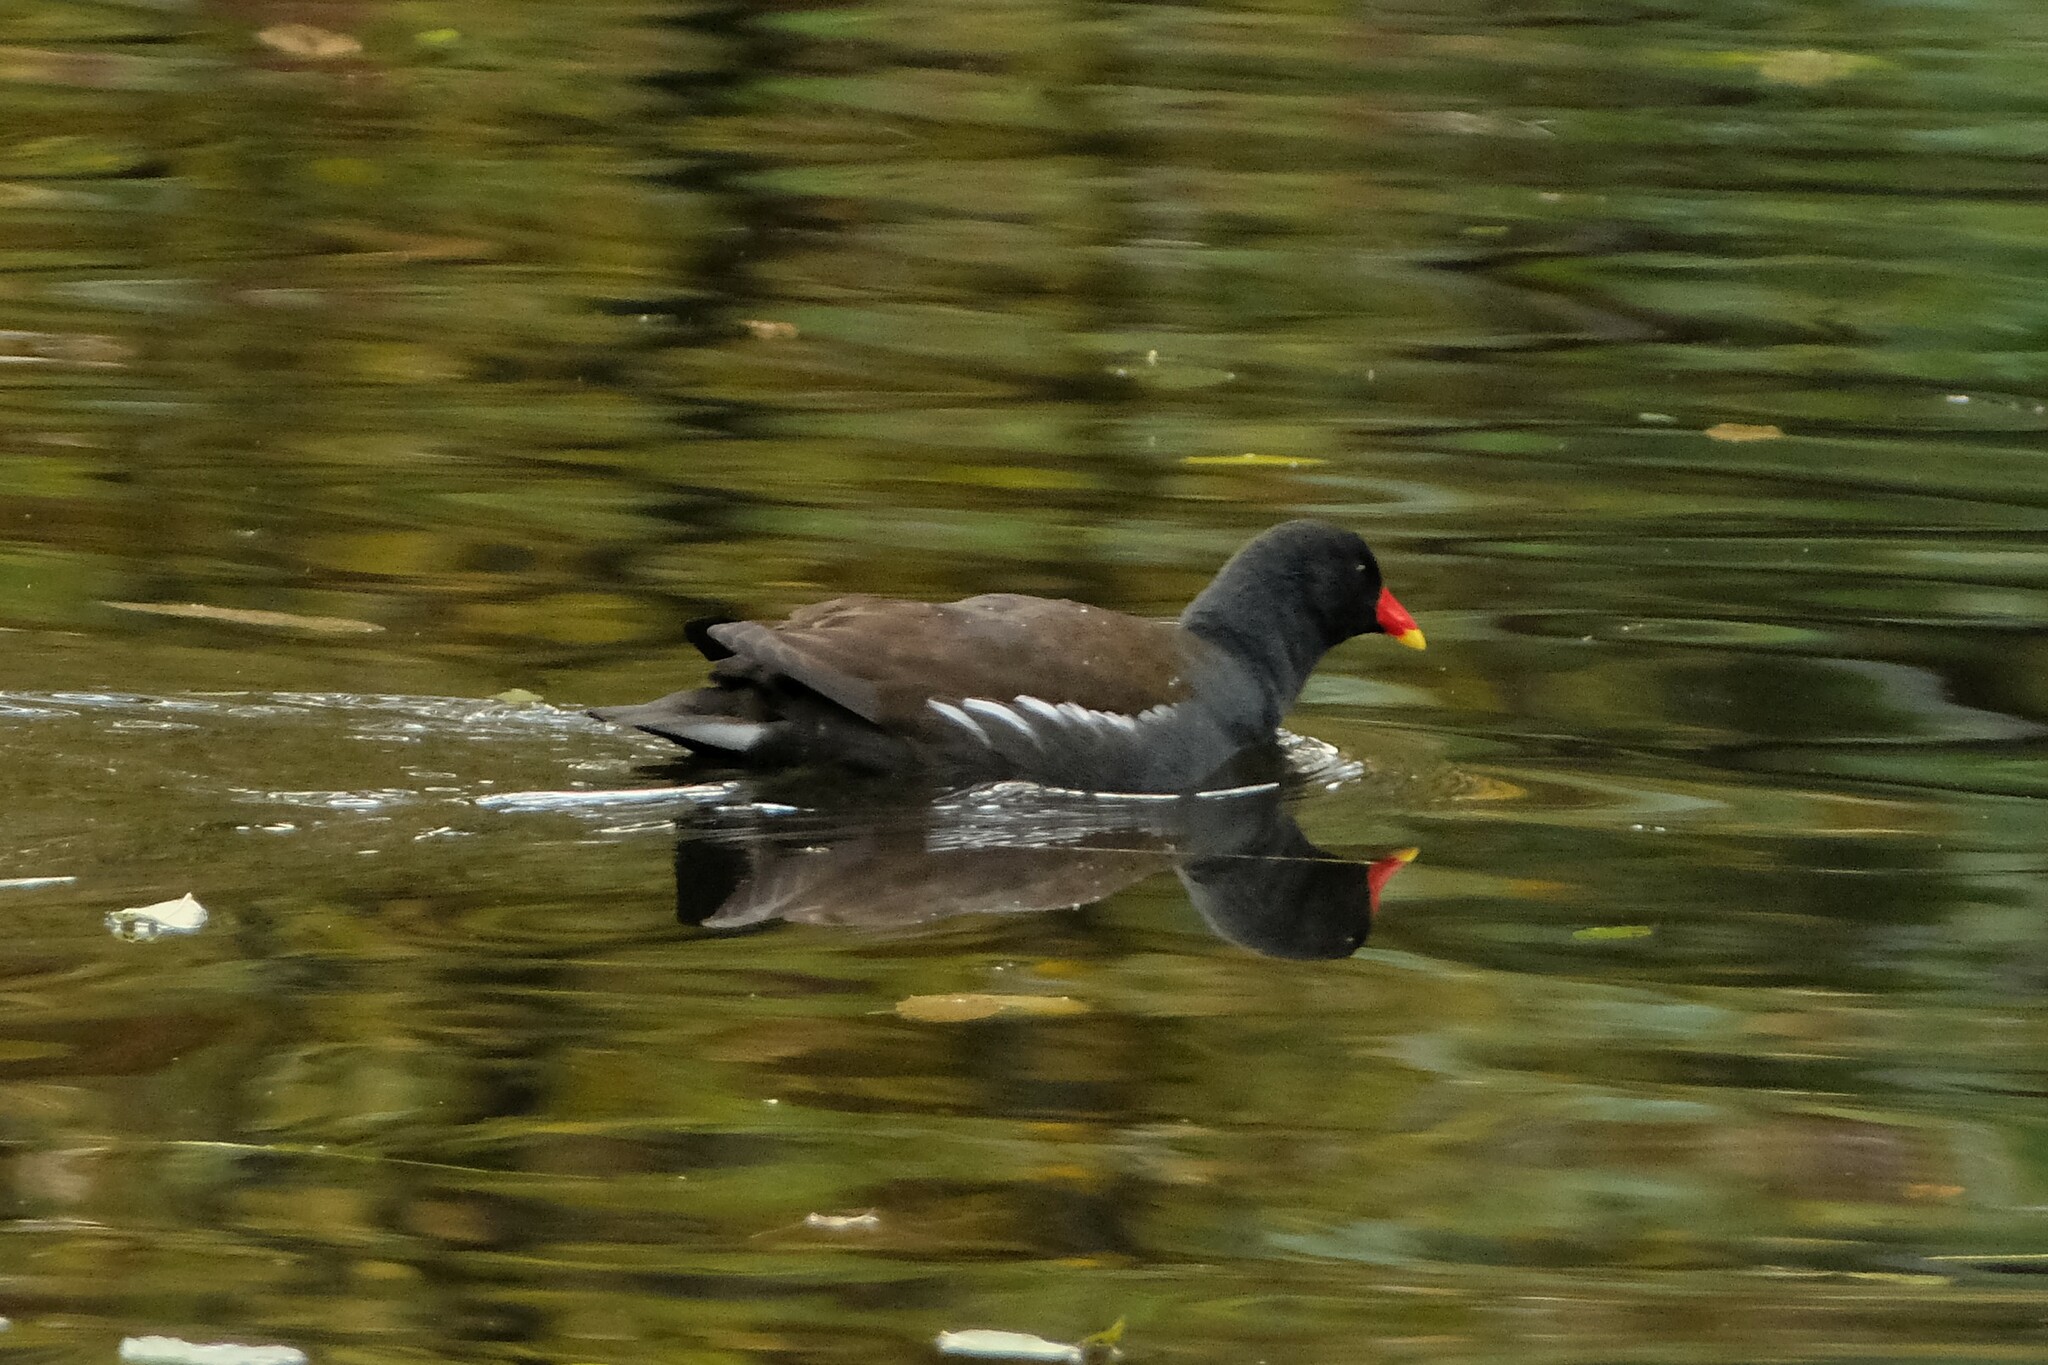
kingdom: Animalia
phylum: Chordata
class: Aves
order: Gruiformes
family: Rallidae
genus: Gallinula
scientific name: Gallinula chloropus
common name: Common moorhen
